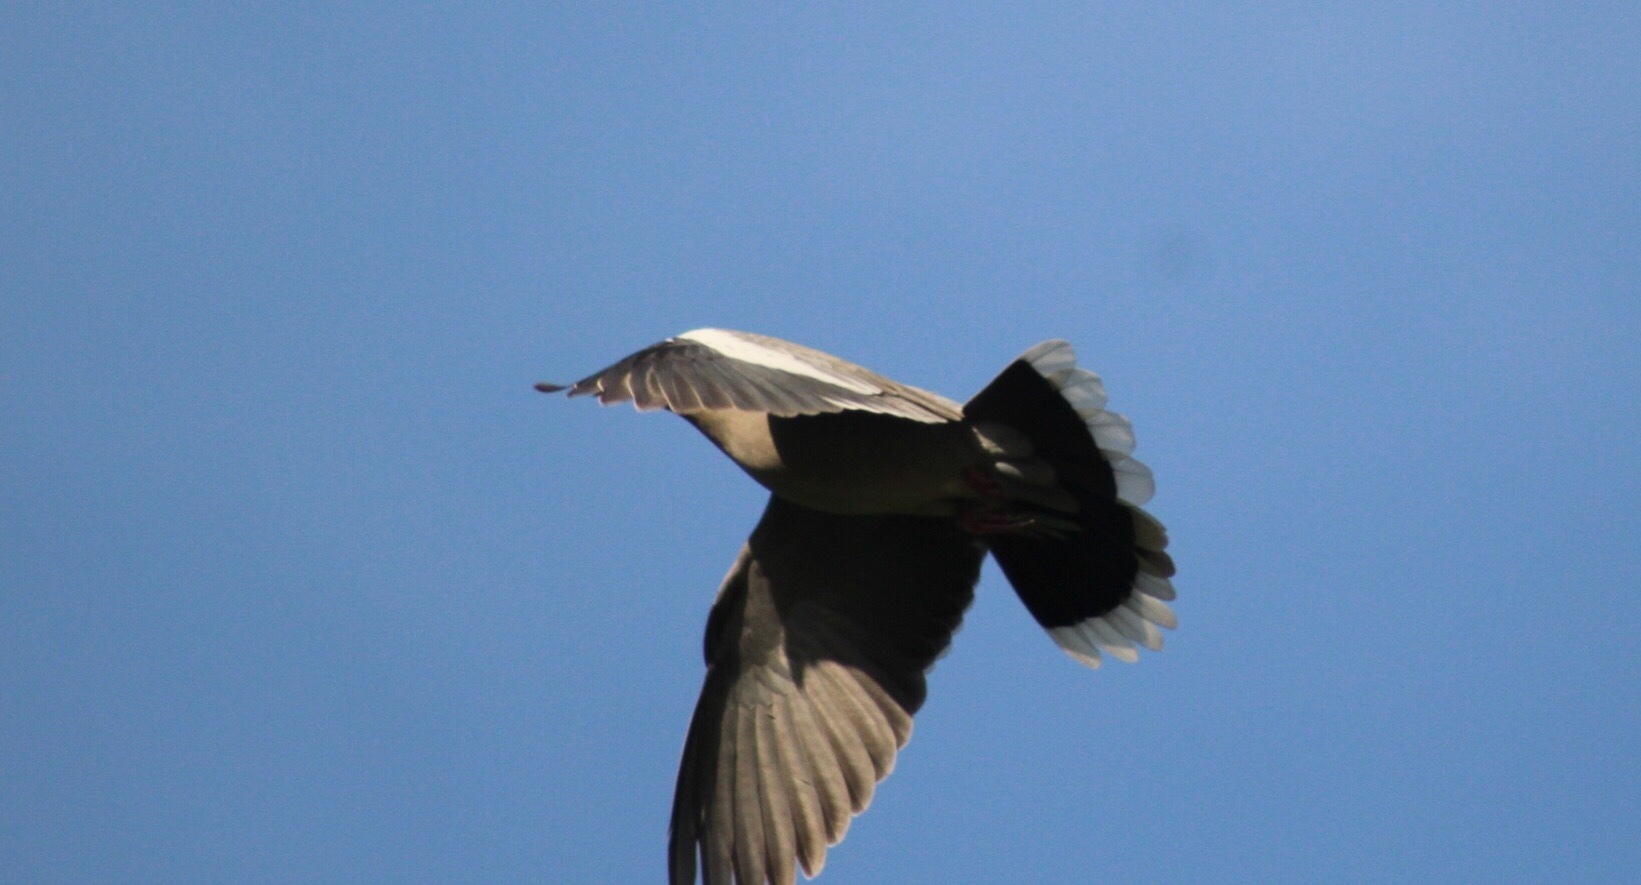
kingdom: Animalia
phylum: Chordata
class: Aves
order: Columbiformes
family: Columbidae
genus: Zenaida
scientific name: Zenaida asiatica
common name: White-winged dove
